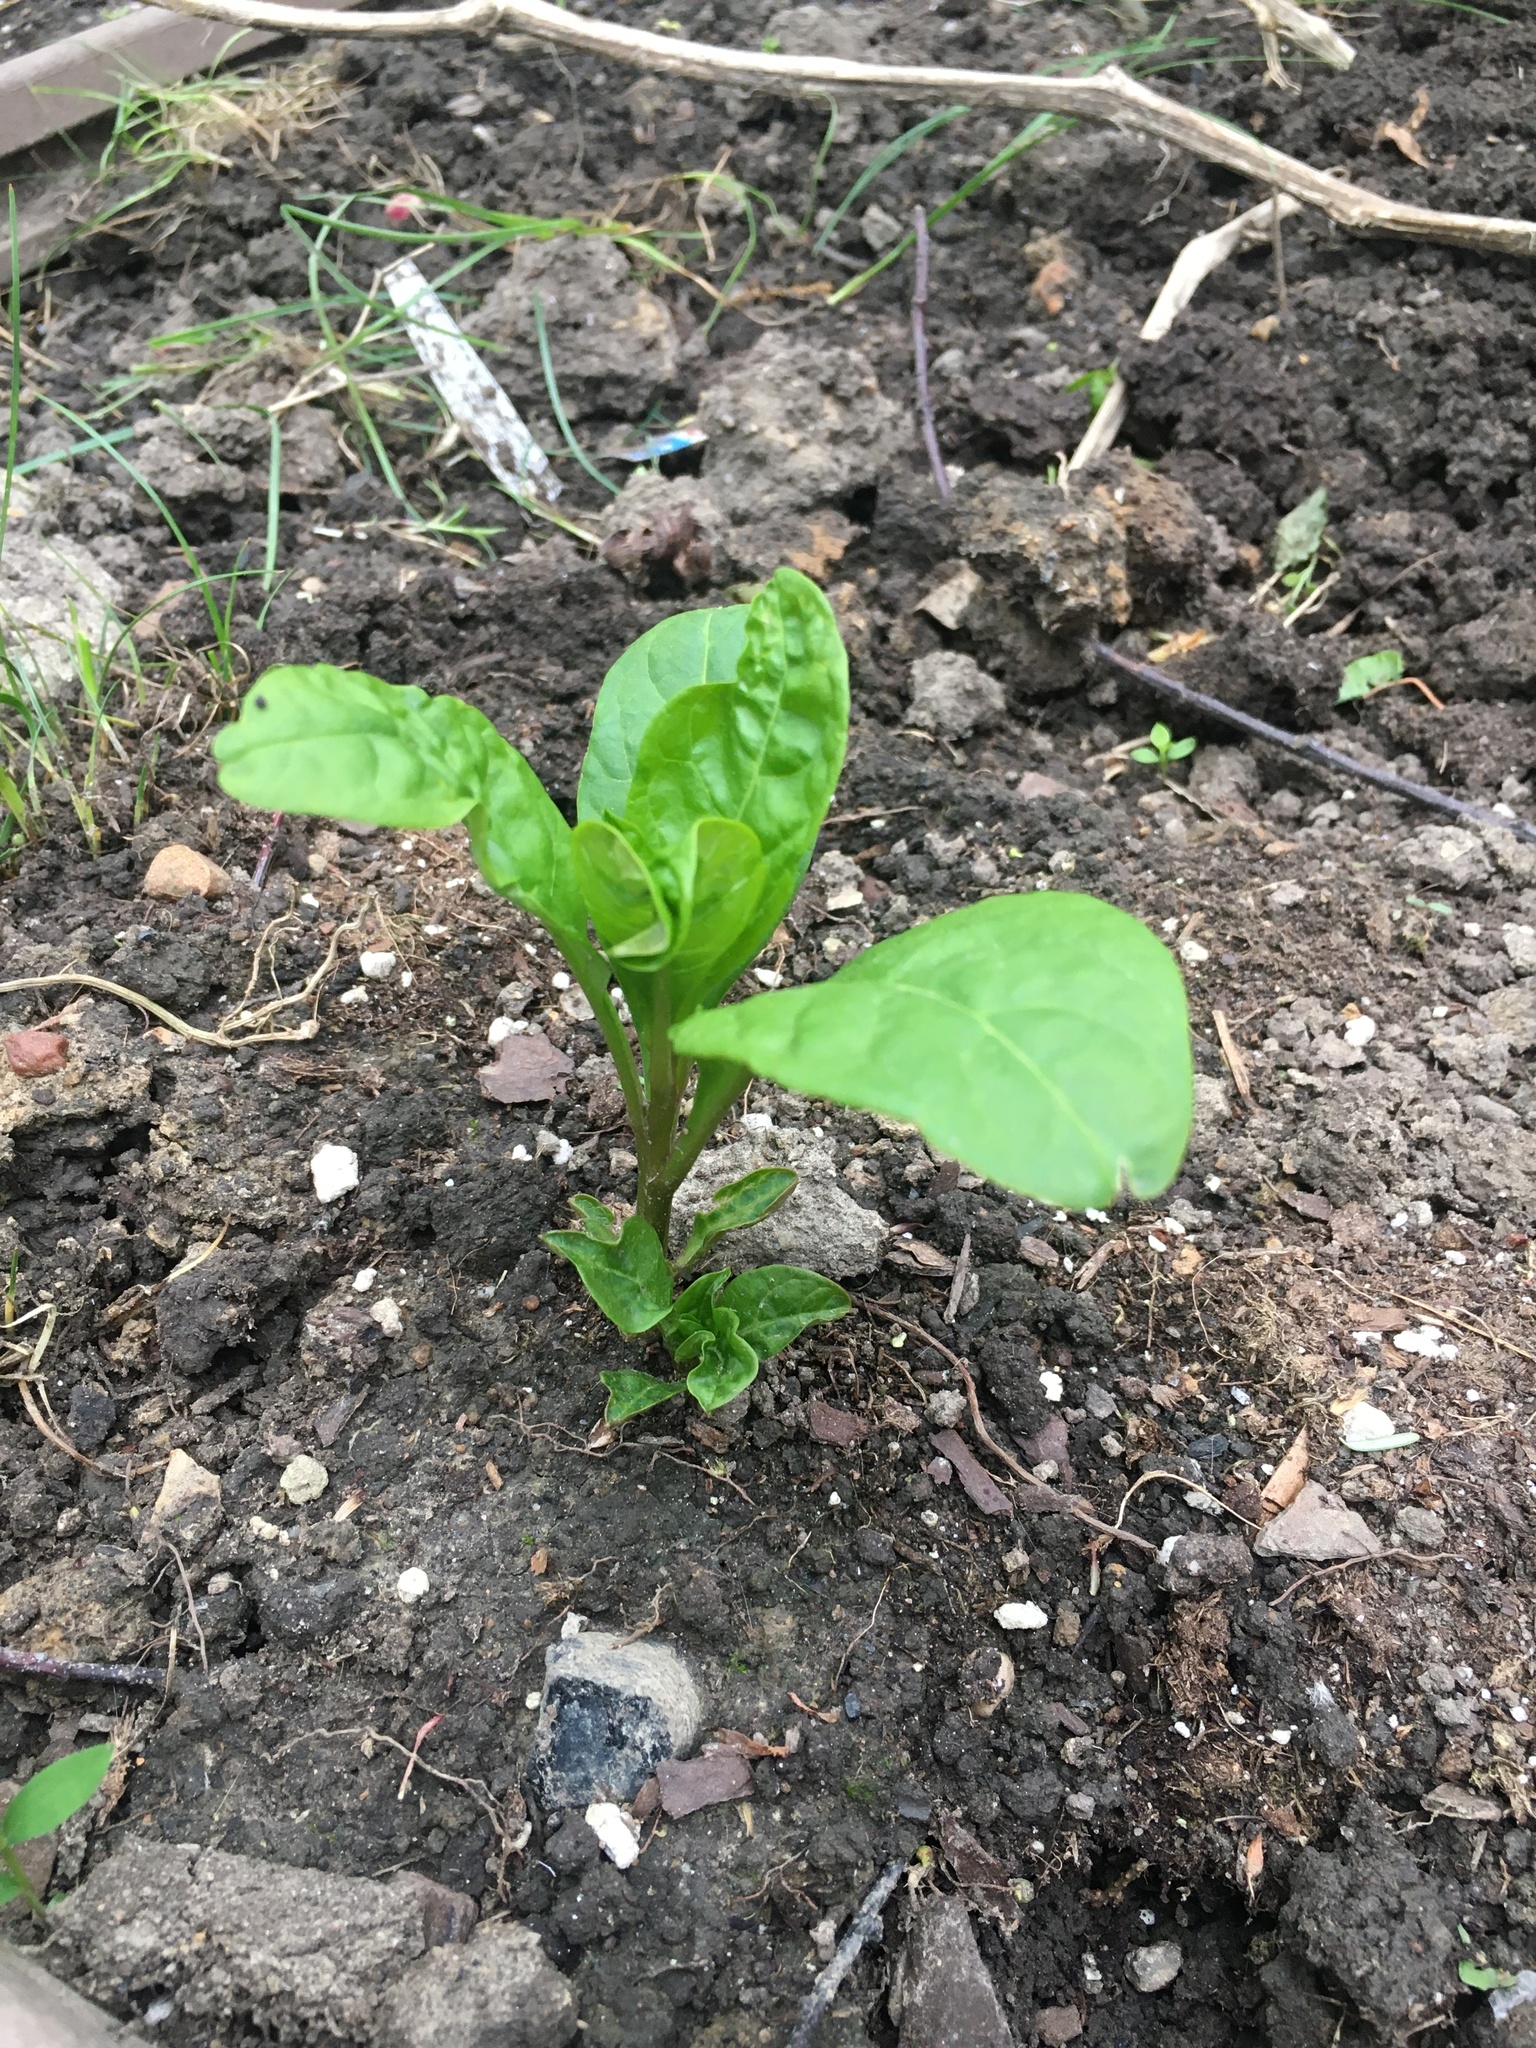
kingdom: Plantae
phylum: Tracheophyta
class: Magnoliopsida
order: Caryophyllales
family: Phytolaccaceae
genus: Phytolacca
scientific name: Phytolacca americana
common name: American pokeweed
